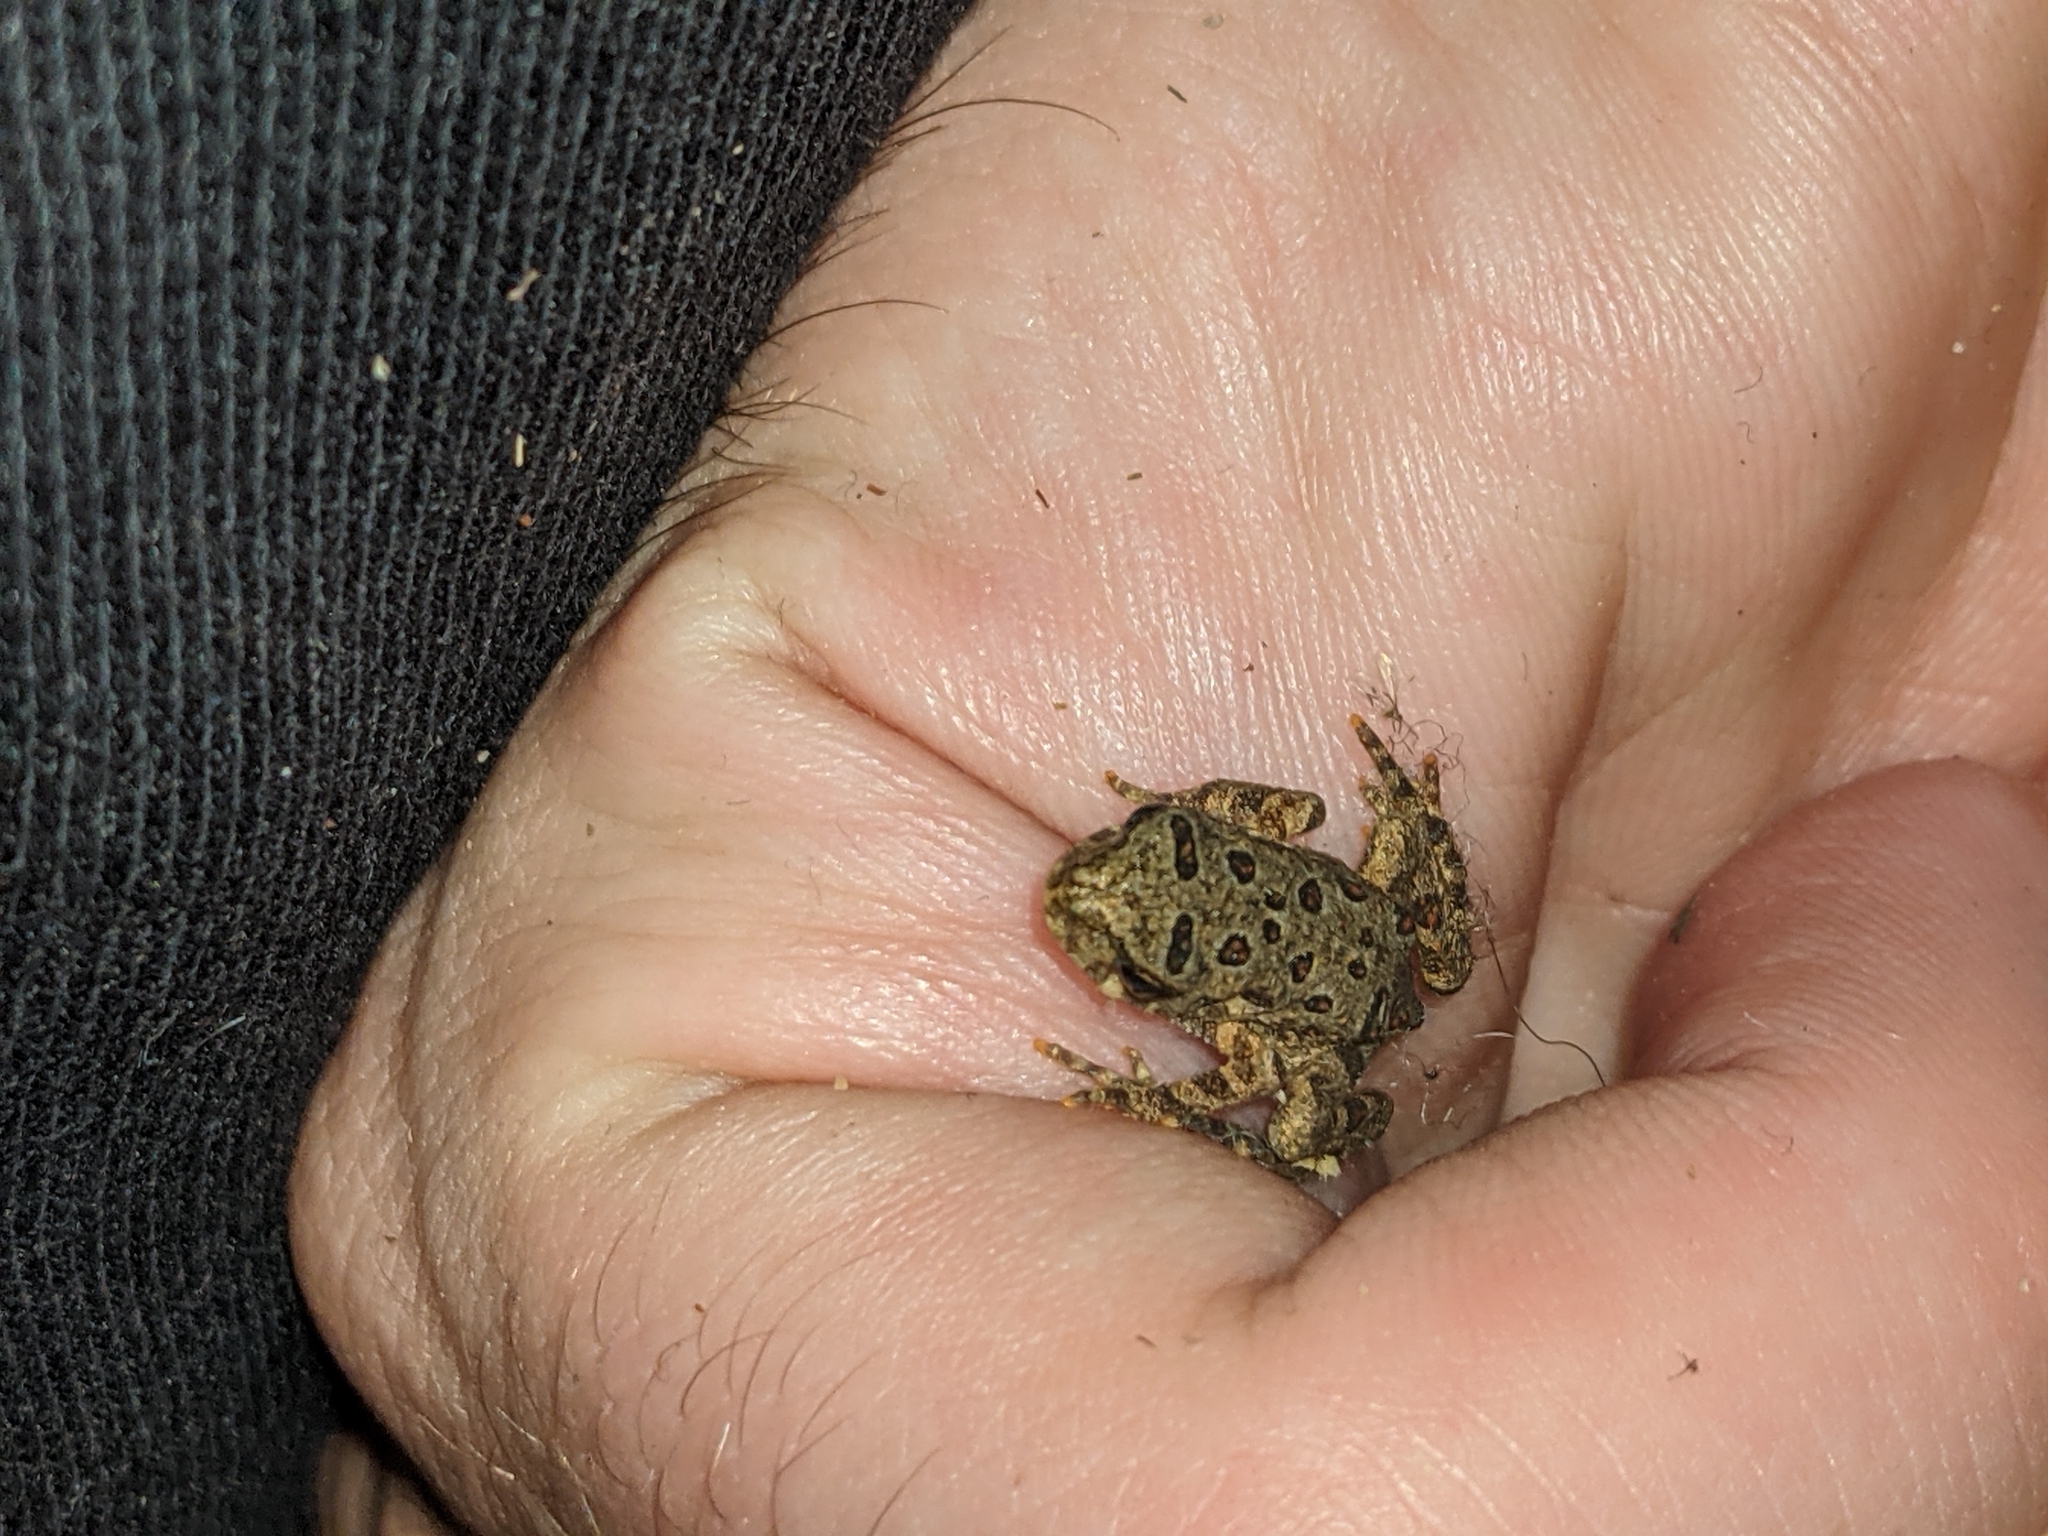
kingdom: Animalia
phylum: Chordata
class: Amphibia
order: Anura
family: Bufonidae
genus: Anaxyrus
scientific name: Anaxyrus americanus
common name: American toad
